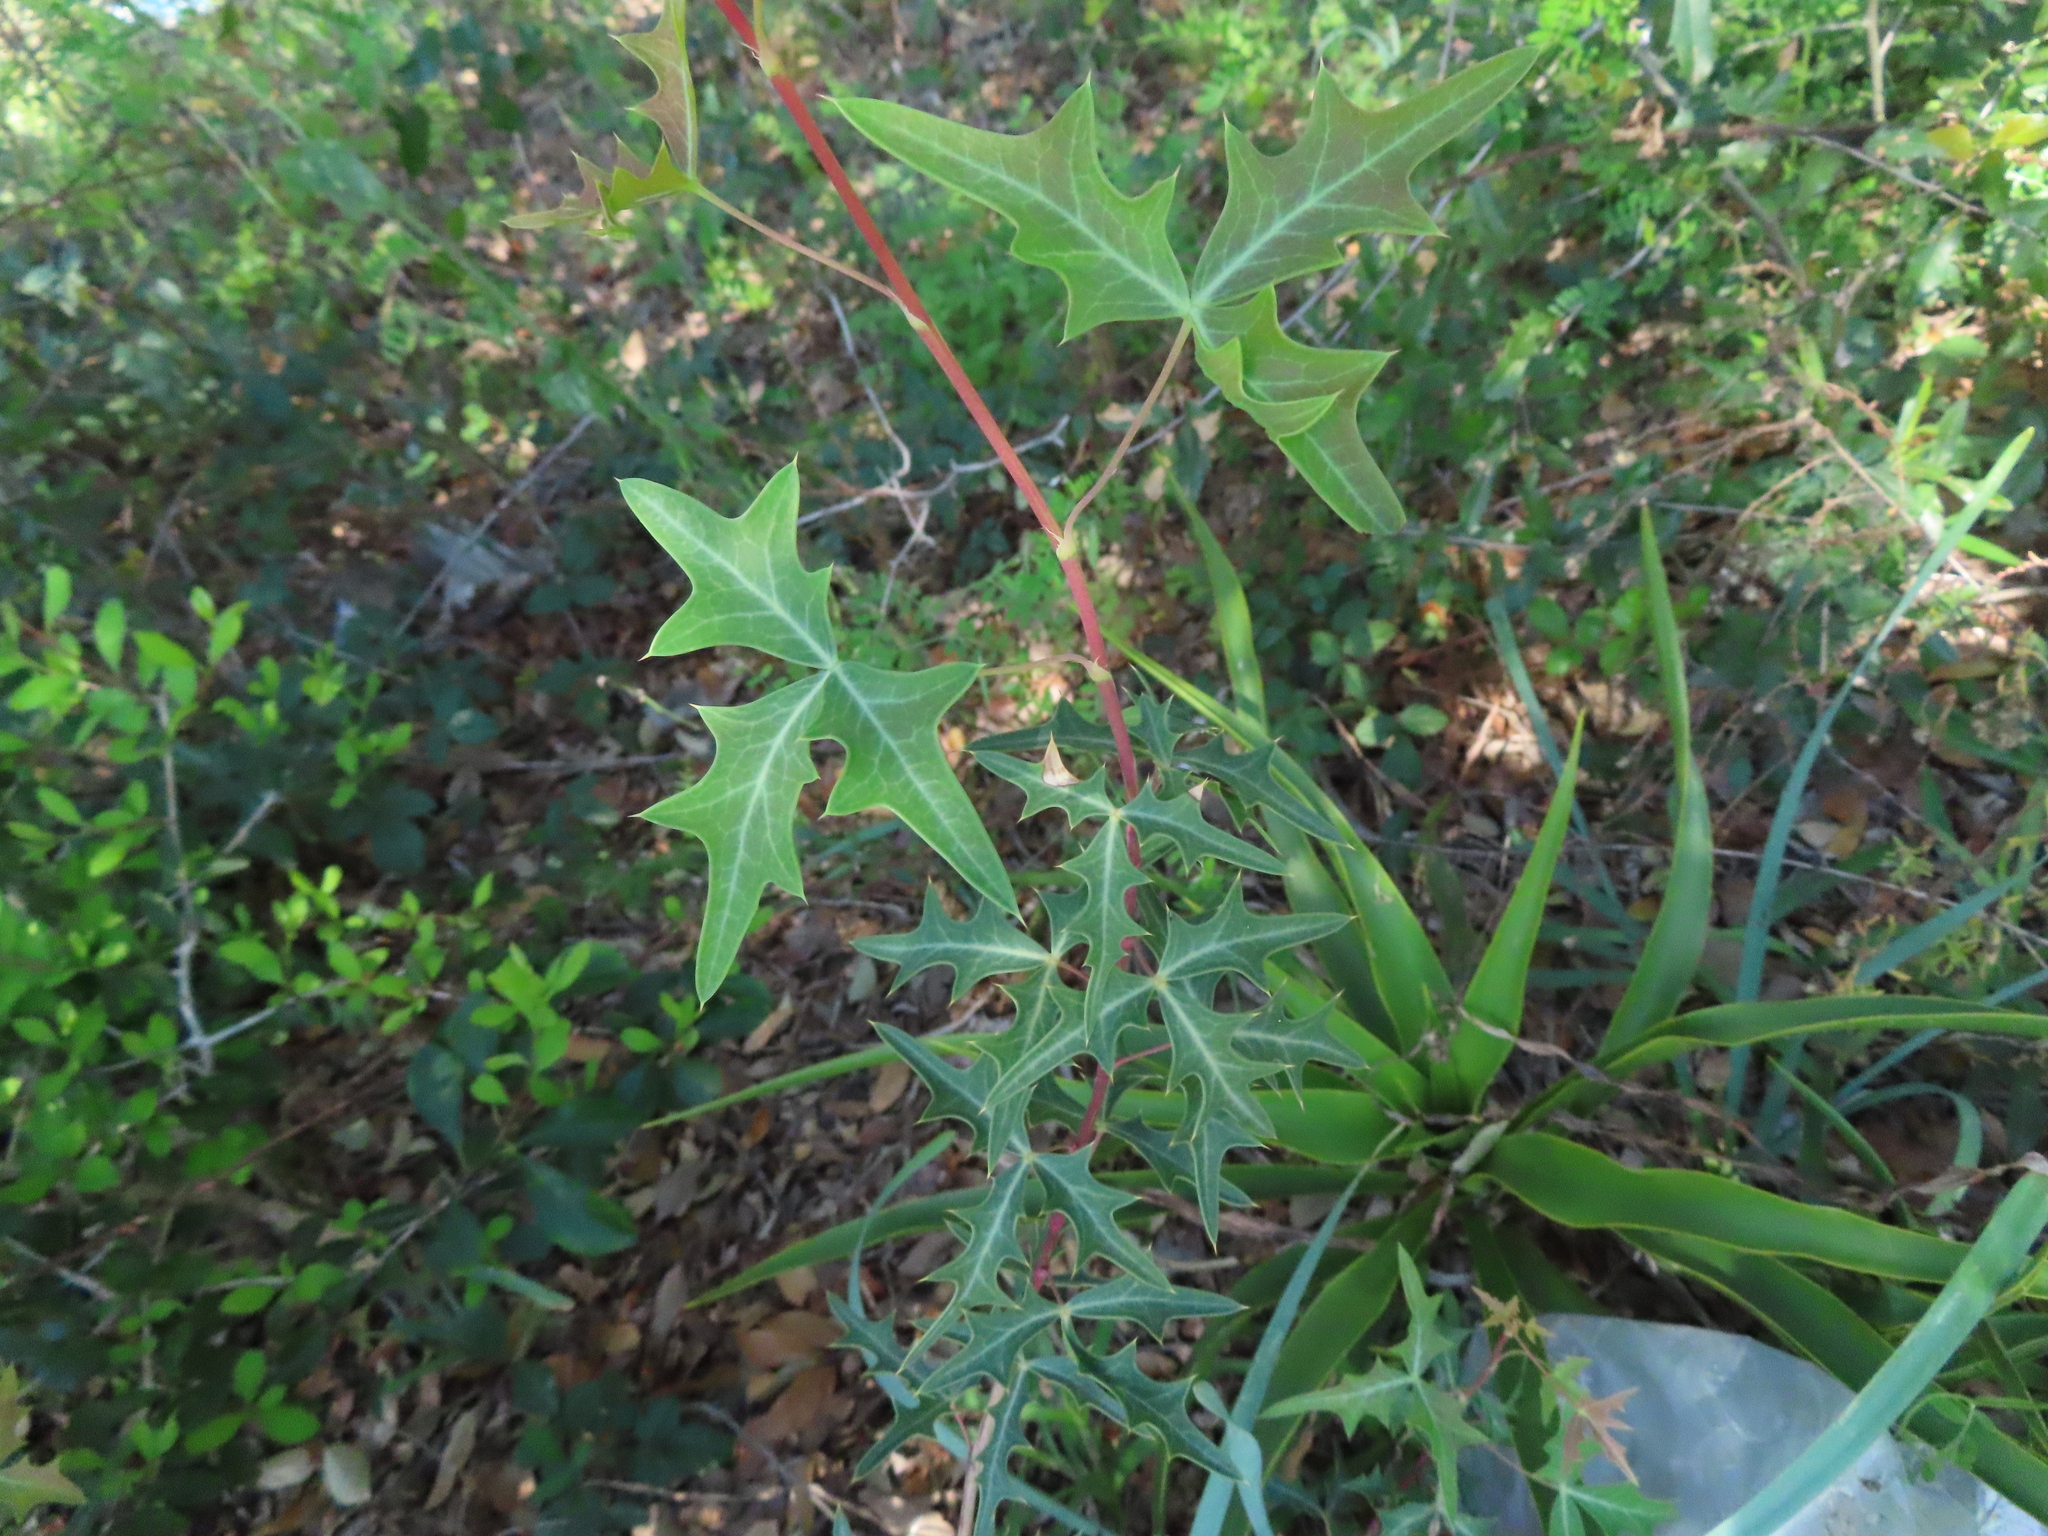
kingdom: Plantae
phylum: Tracheophyta
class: Magnoliopsida
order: Ranunculales
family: Berberidaceae
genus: Alloberberis
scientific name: Alloberberis trifoliolata
